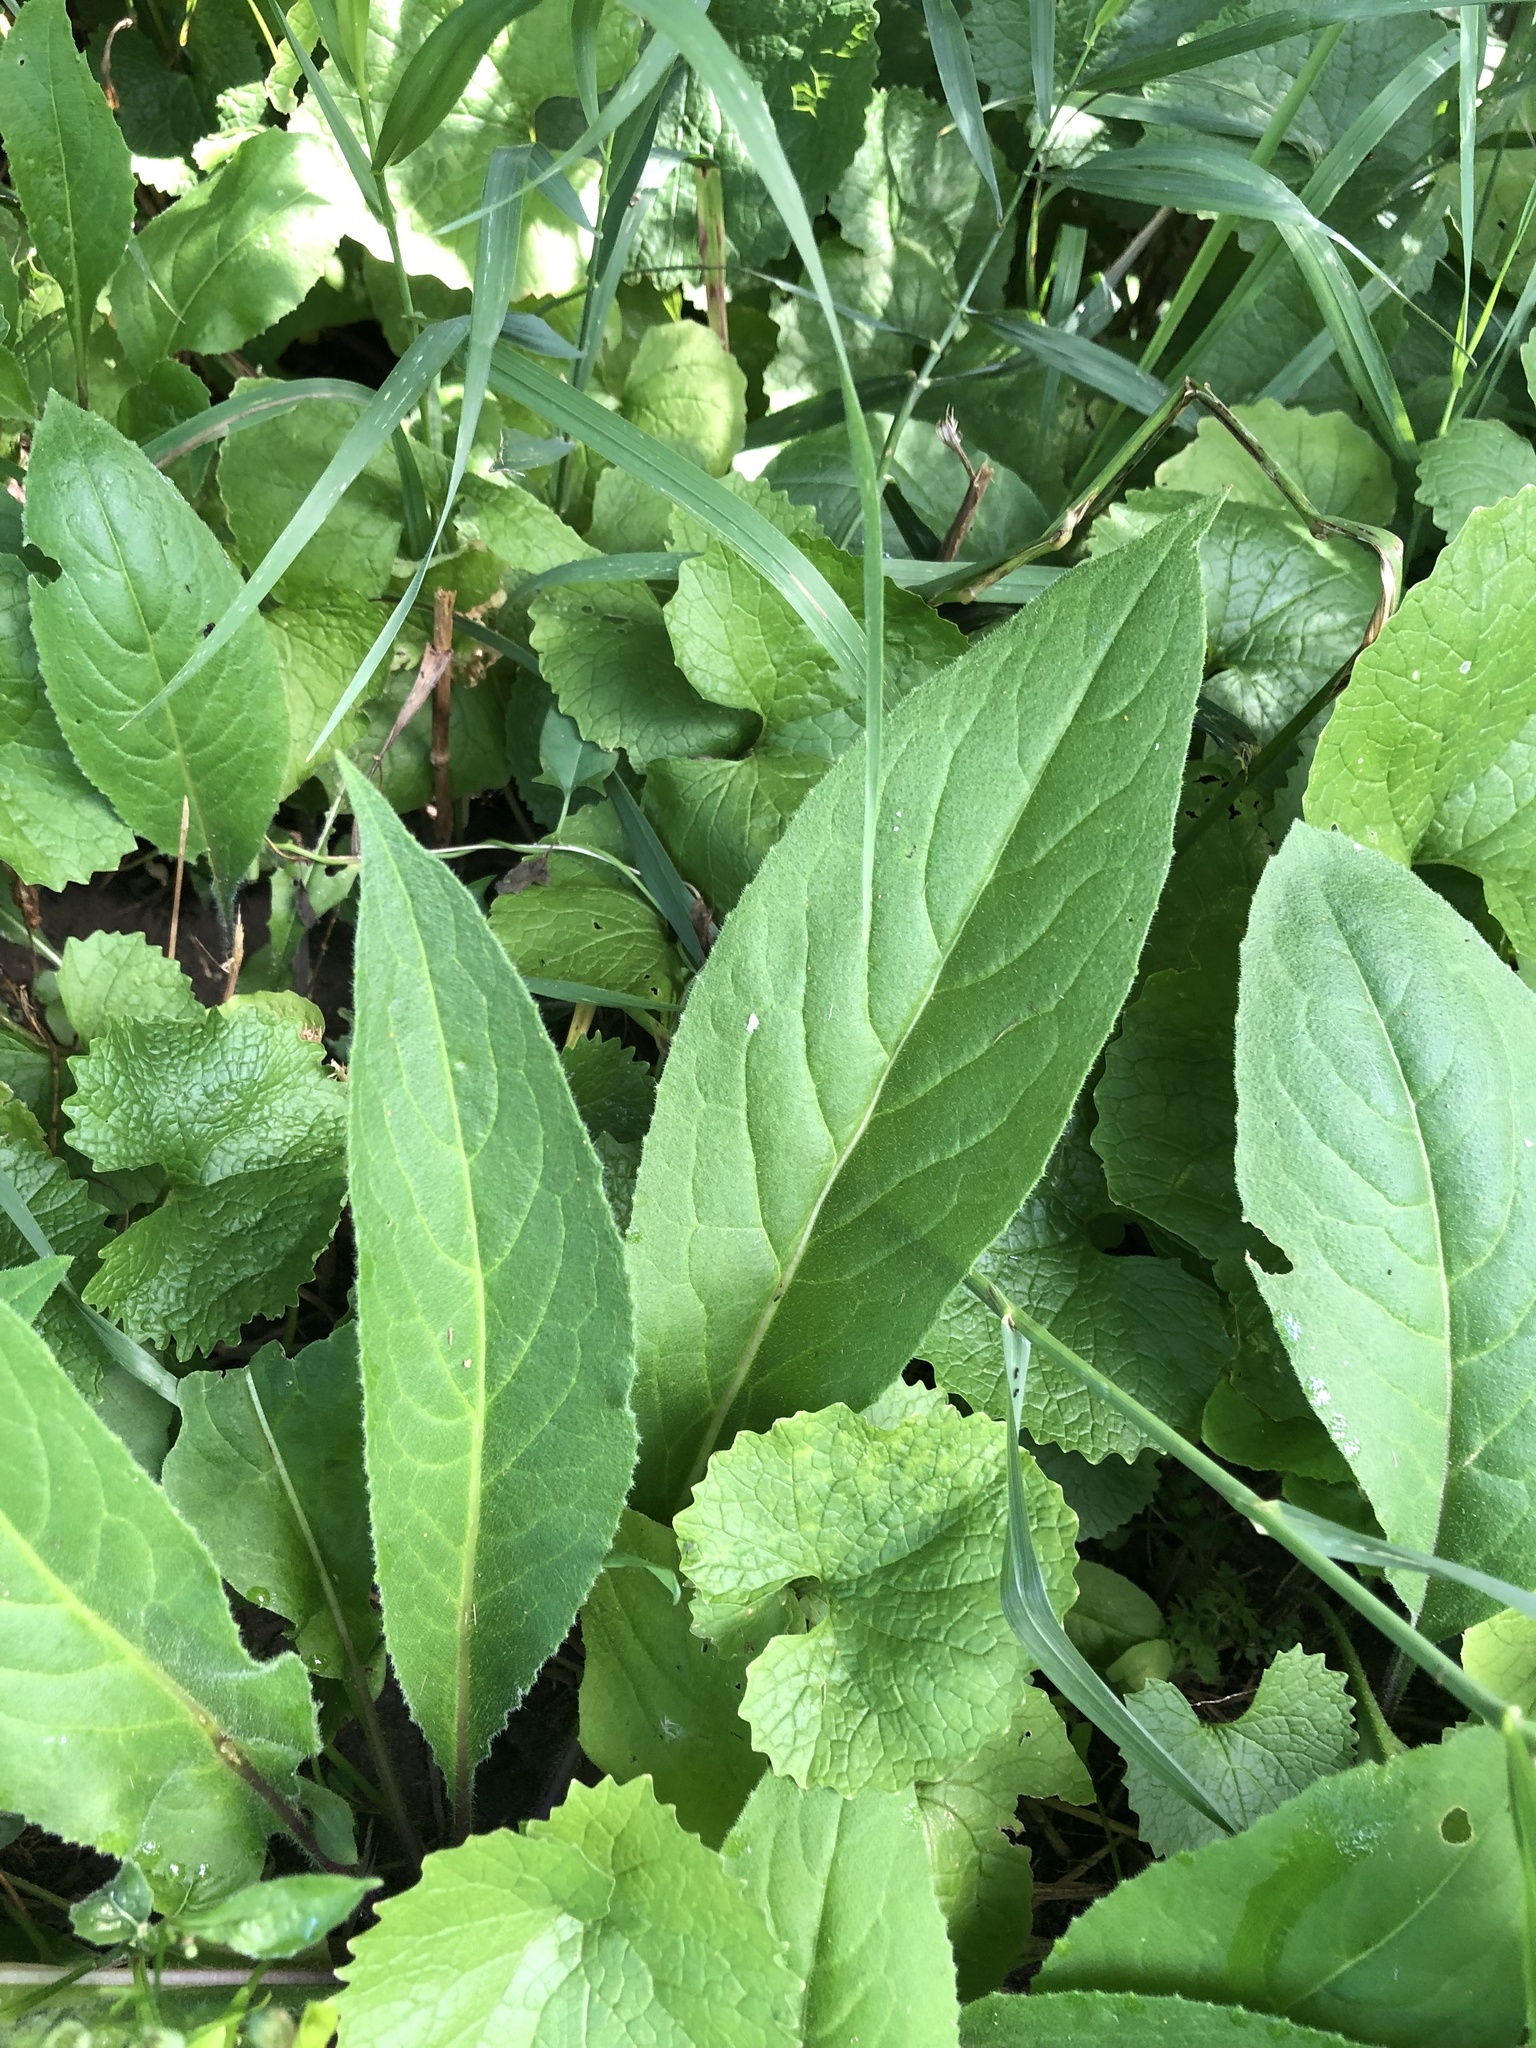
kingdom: Plantae
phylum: Tracheophyta
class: Magnoliopsida
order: Brassicales
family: Brassicaceae
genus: Hesperis
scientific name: Hesperis matronalis
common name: Dame's-violet
